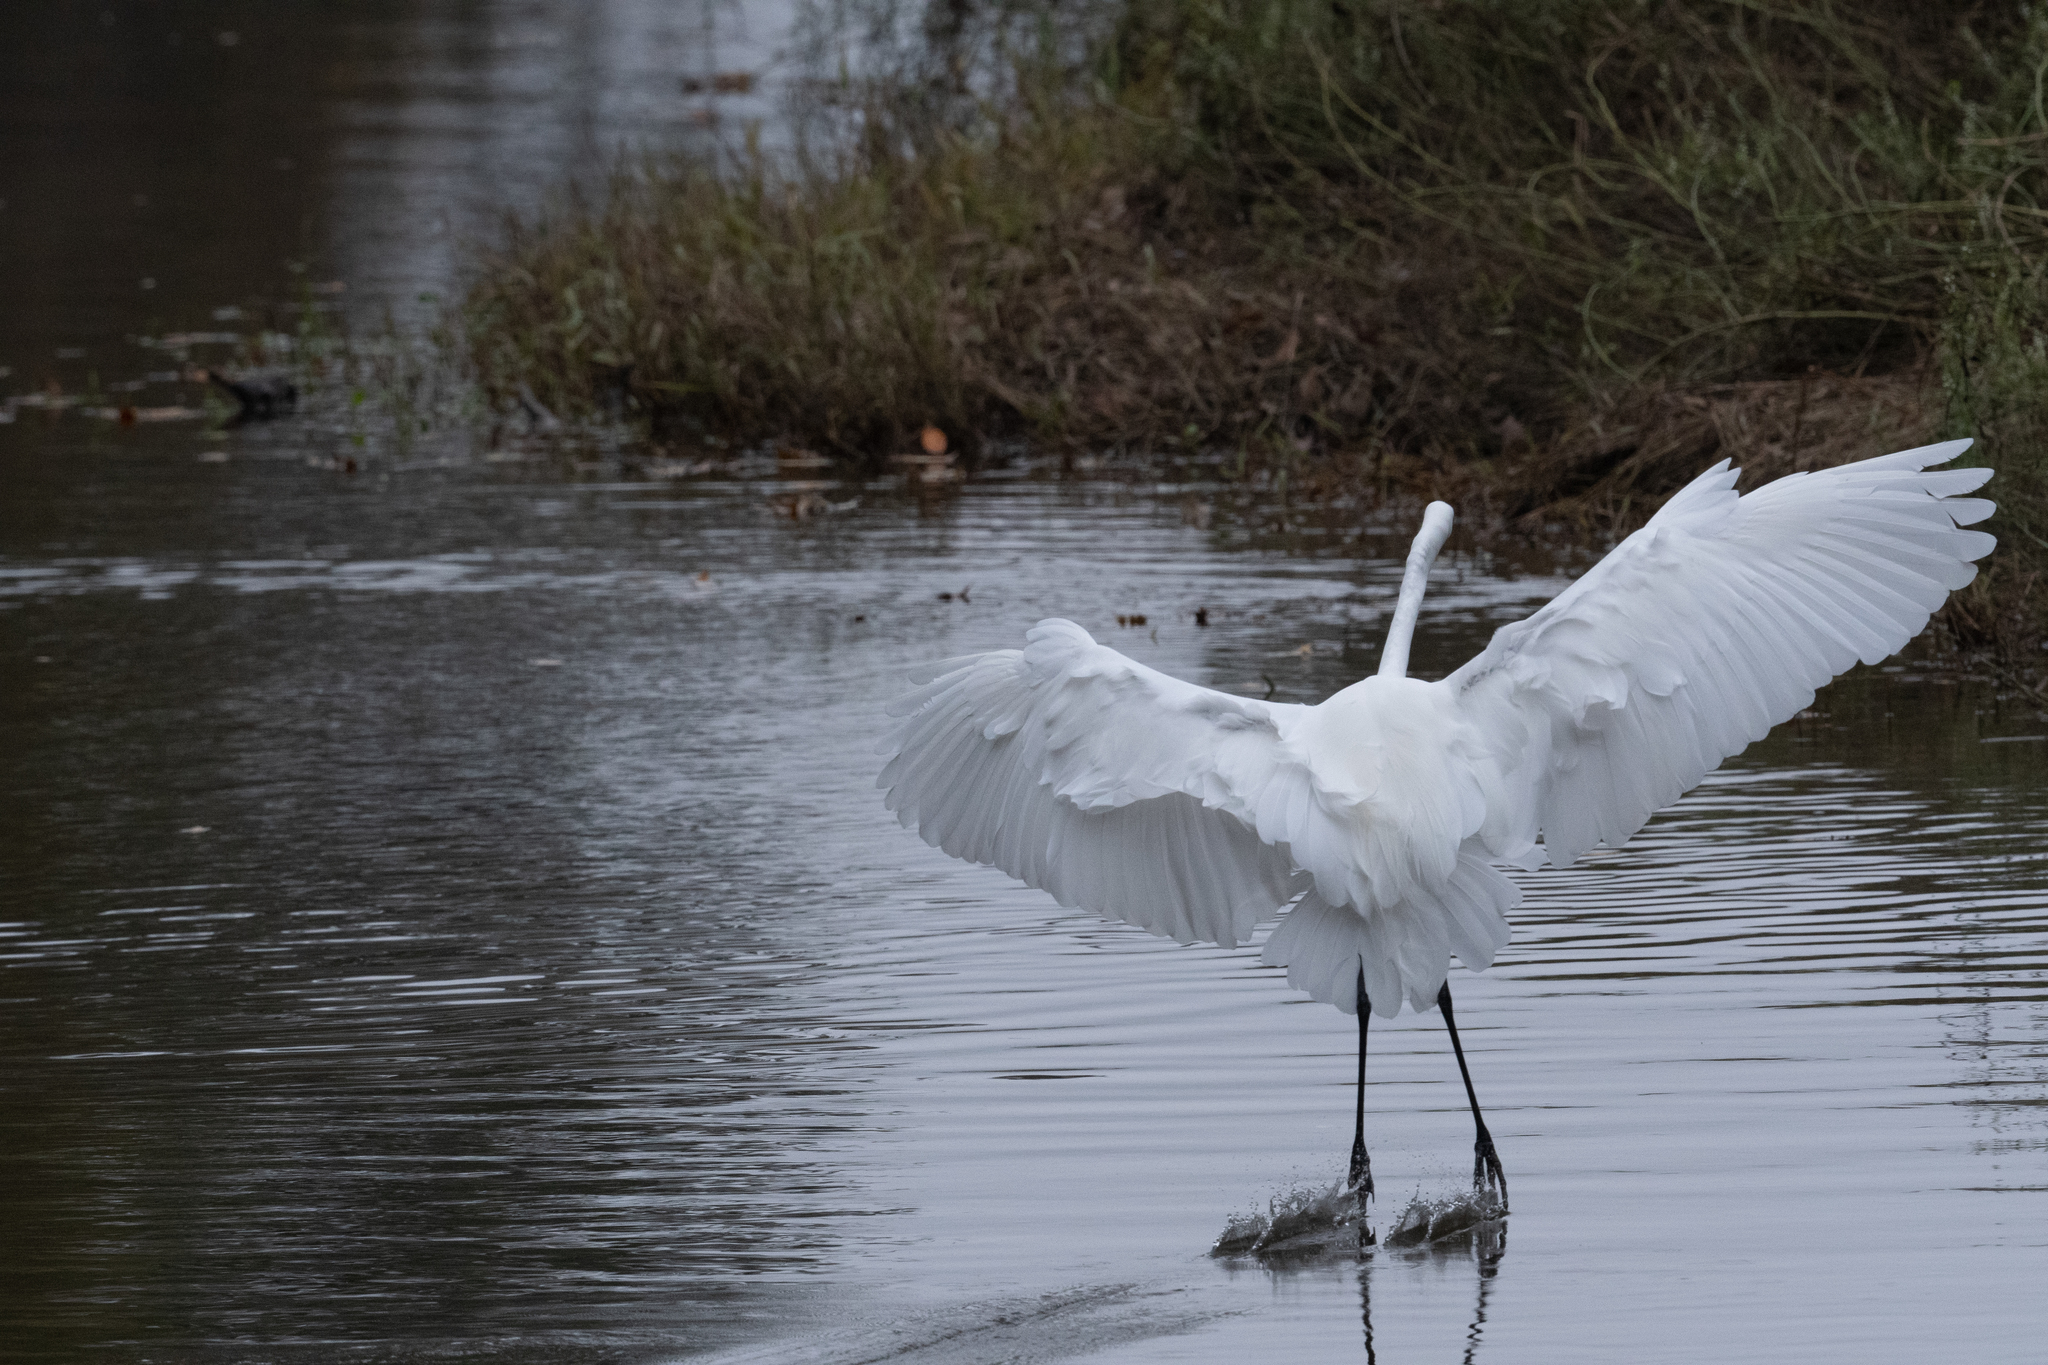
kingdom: Animalia
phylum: Chordata
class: Aves
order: Pelecaniformes
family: Ardeidae
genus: Ardea
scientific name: Ardea alba
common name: Great egret
